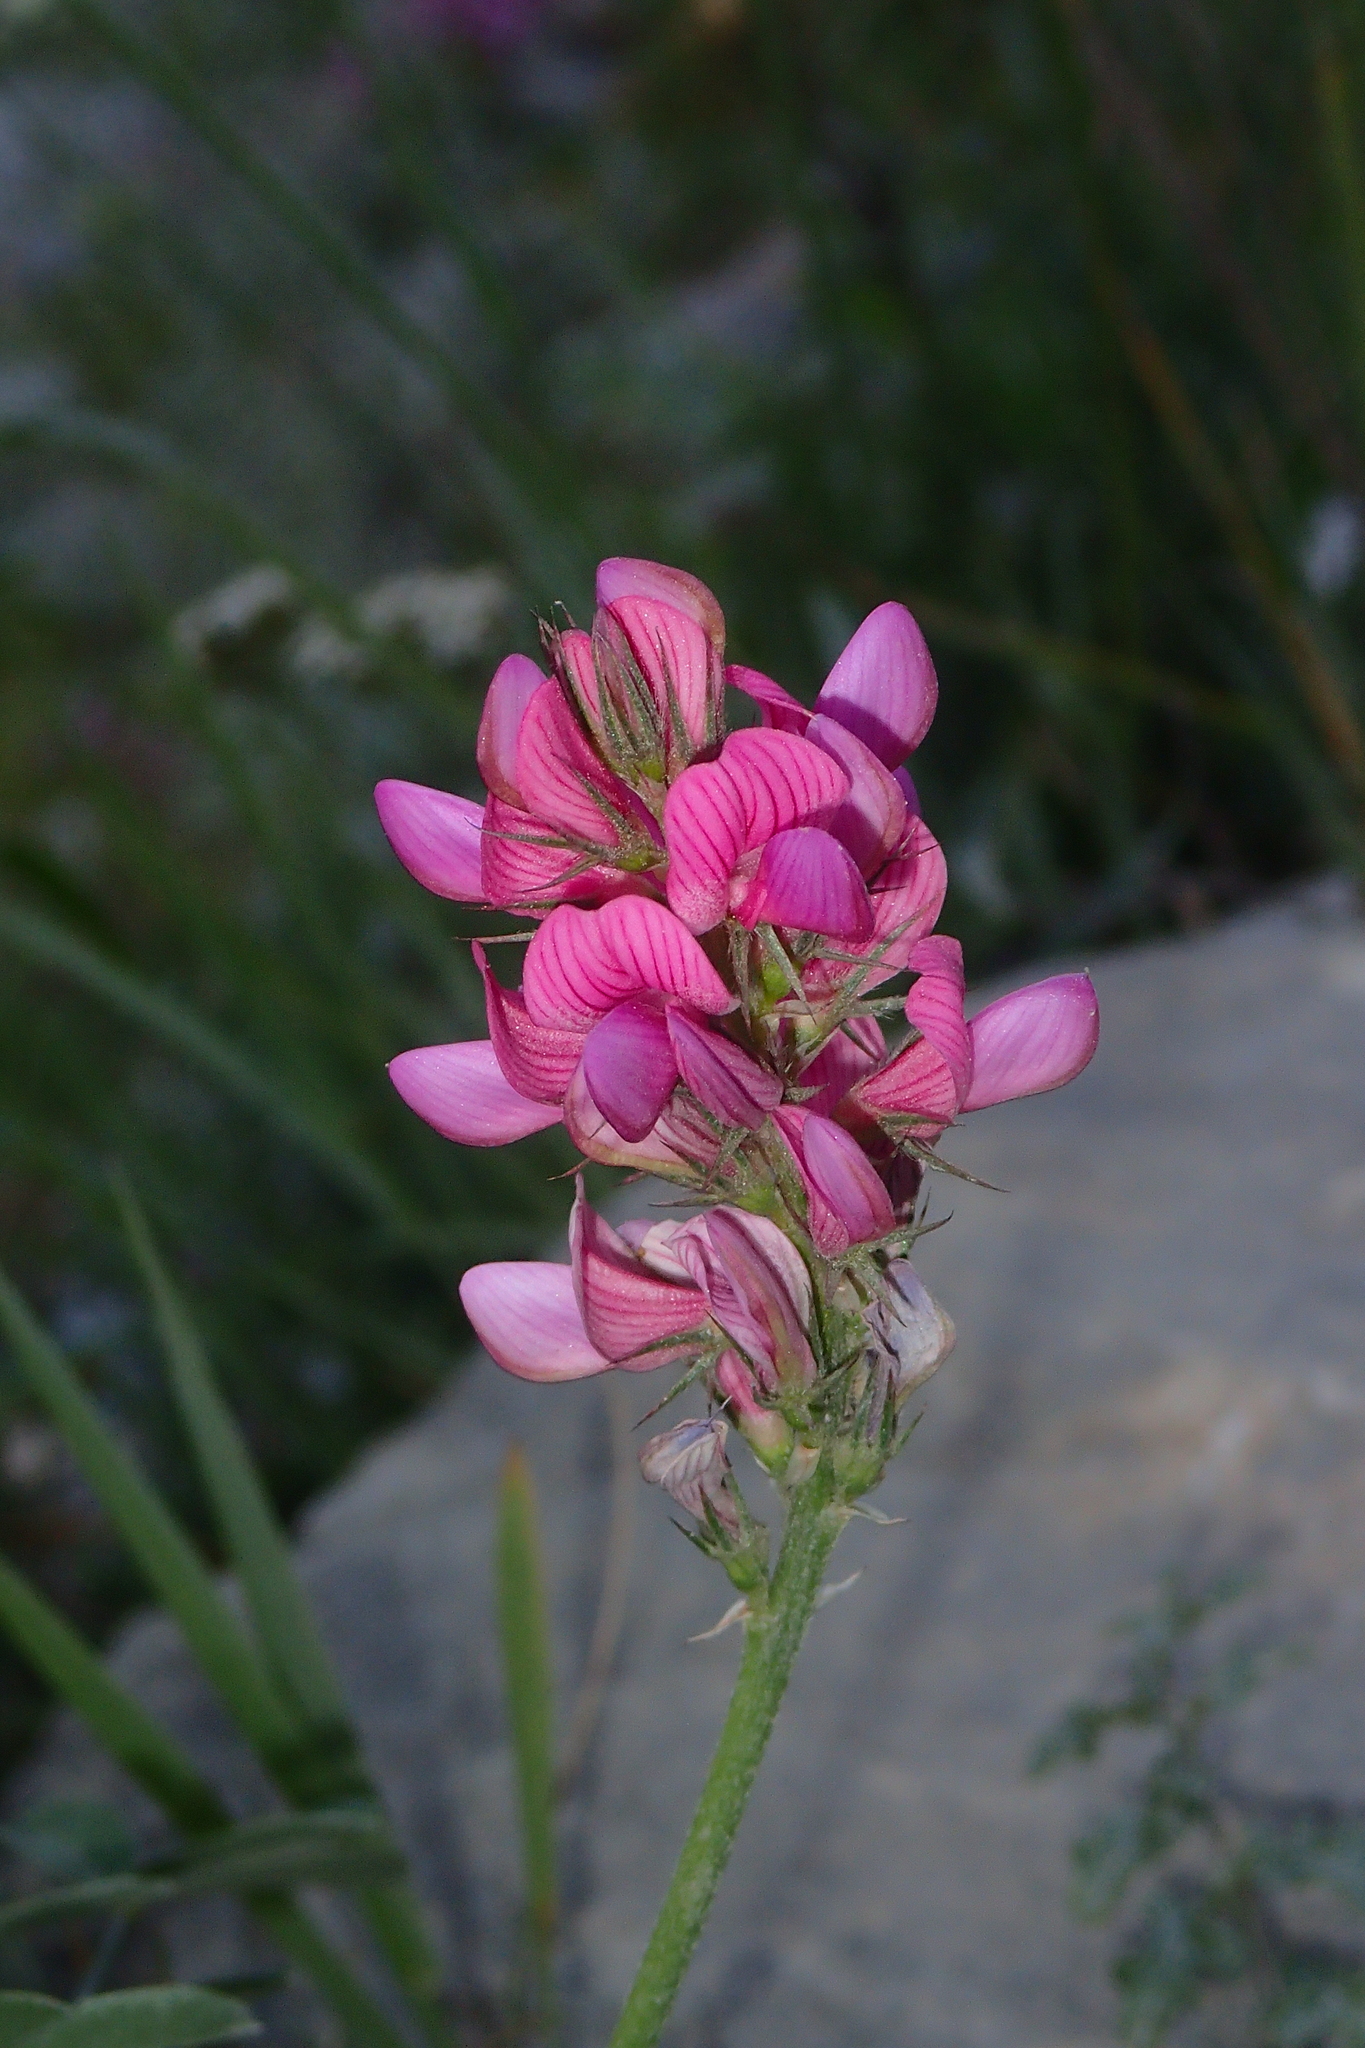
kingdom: Plantae
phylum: Tracheophyta
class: Magnoliopsida
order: Fabales
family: Fabaceae
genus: Onobrychis
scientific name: Onobrychis montana
